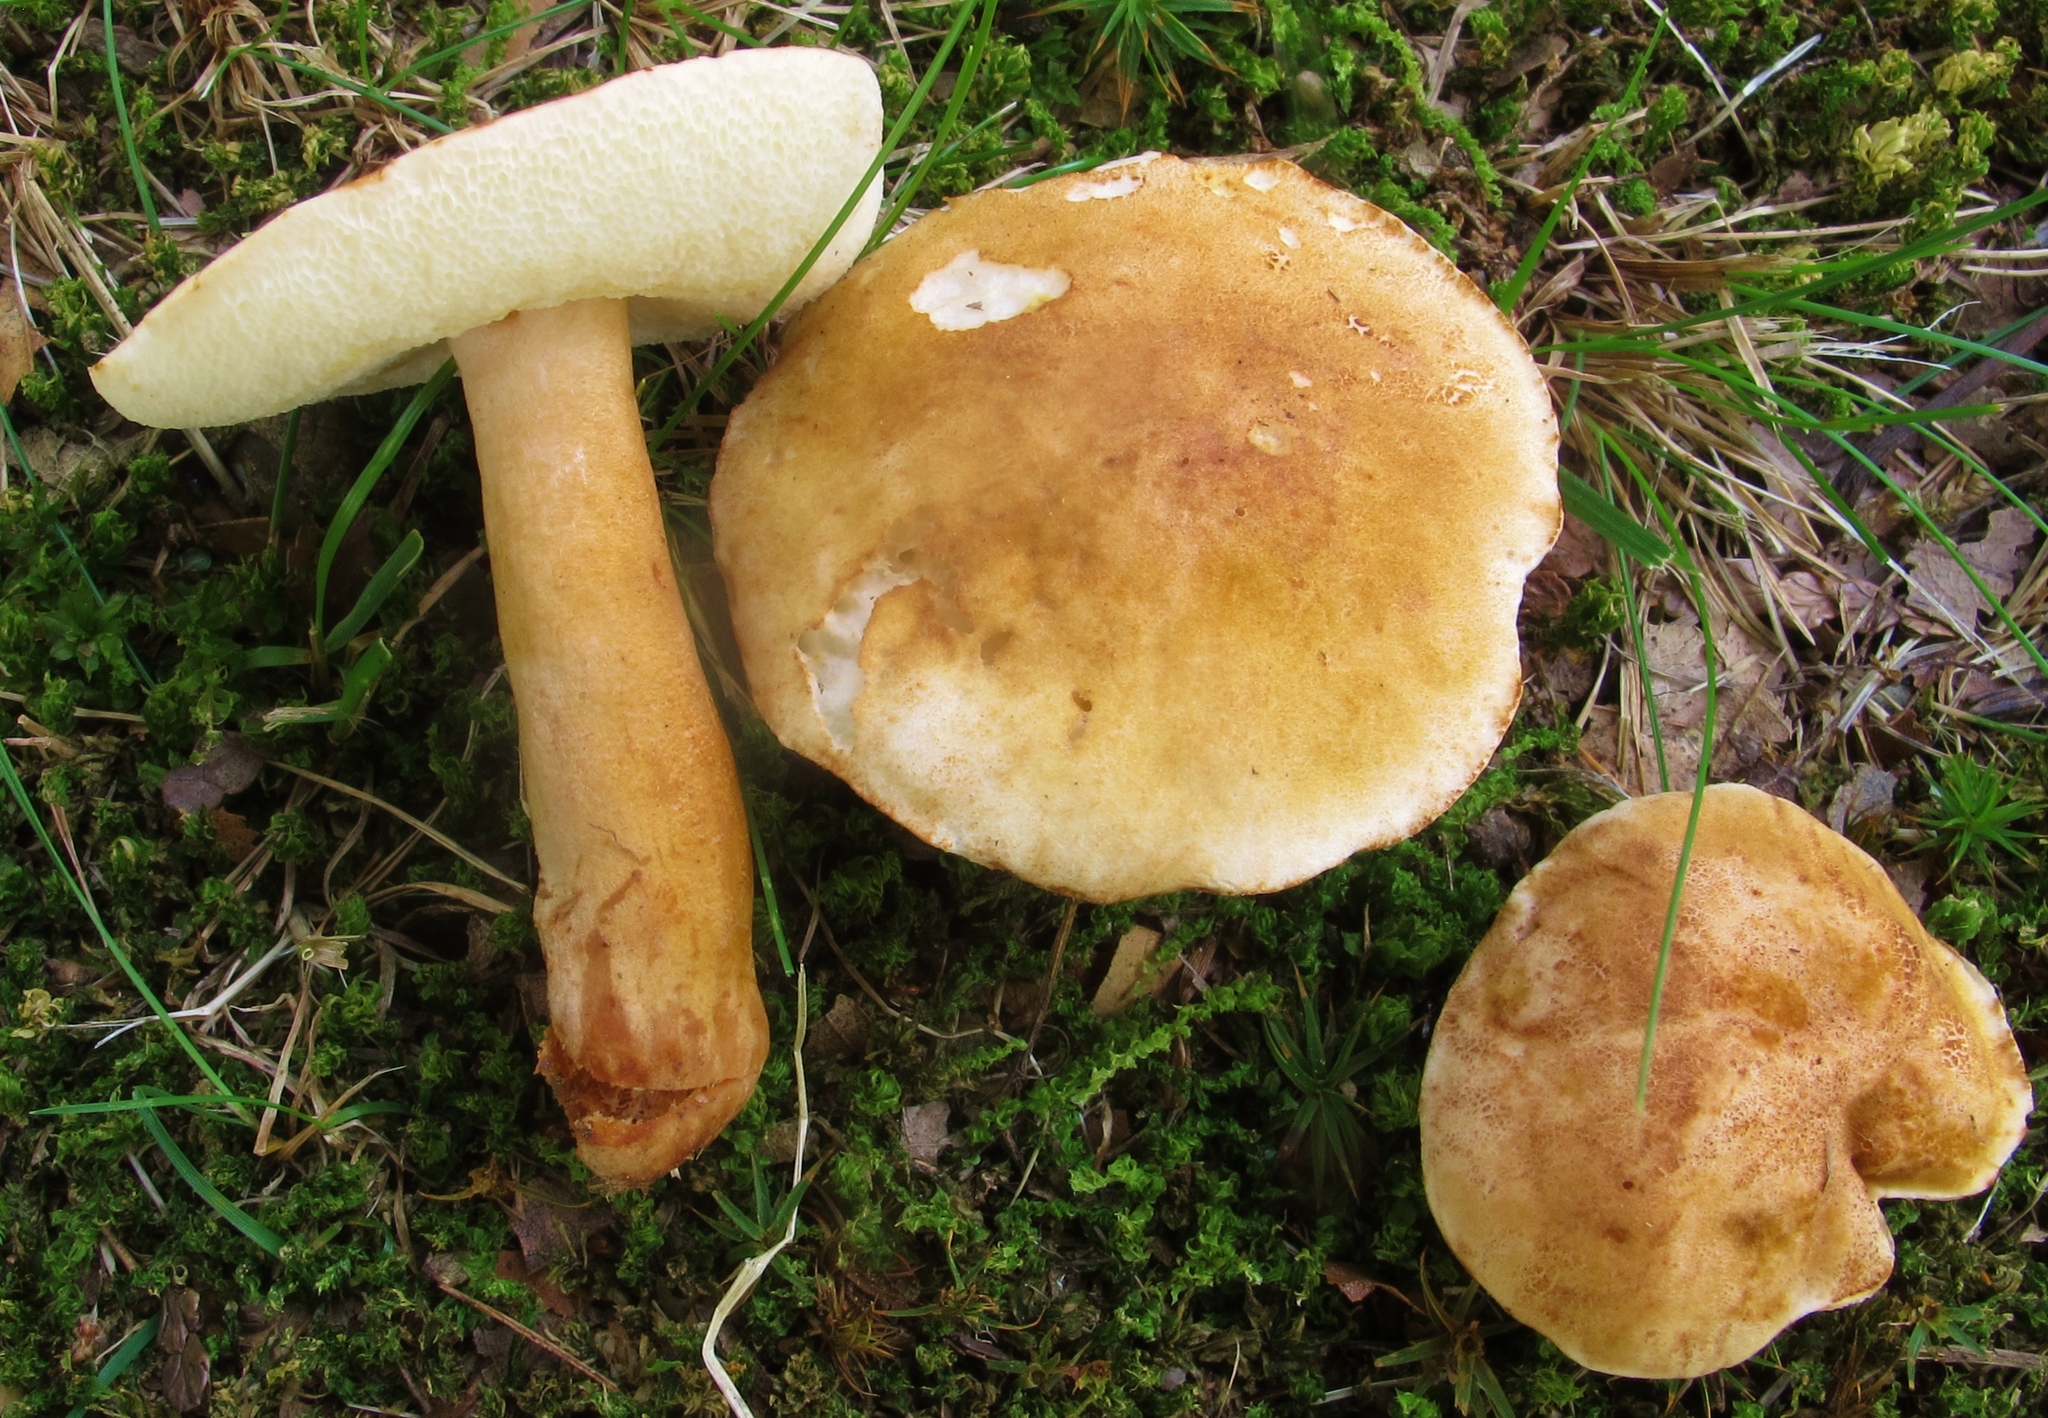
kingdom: Fungi
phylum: Basidiomycota
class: Agaricomycetes
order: Boletales
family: Gyroporaceae
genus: Gyroporus
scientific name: Gyroporus castaneus
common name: Chestnut bolete
